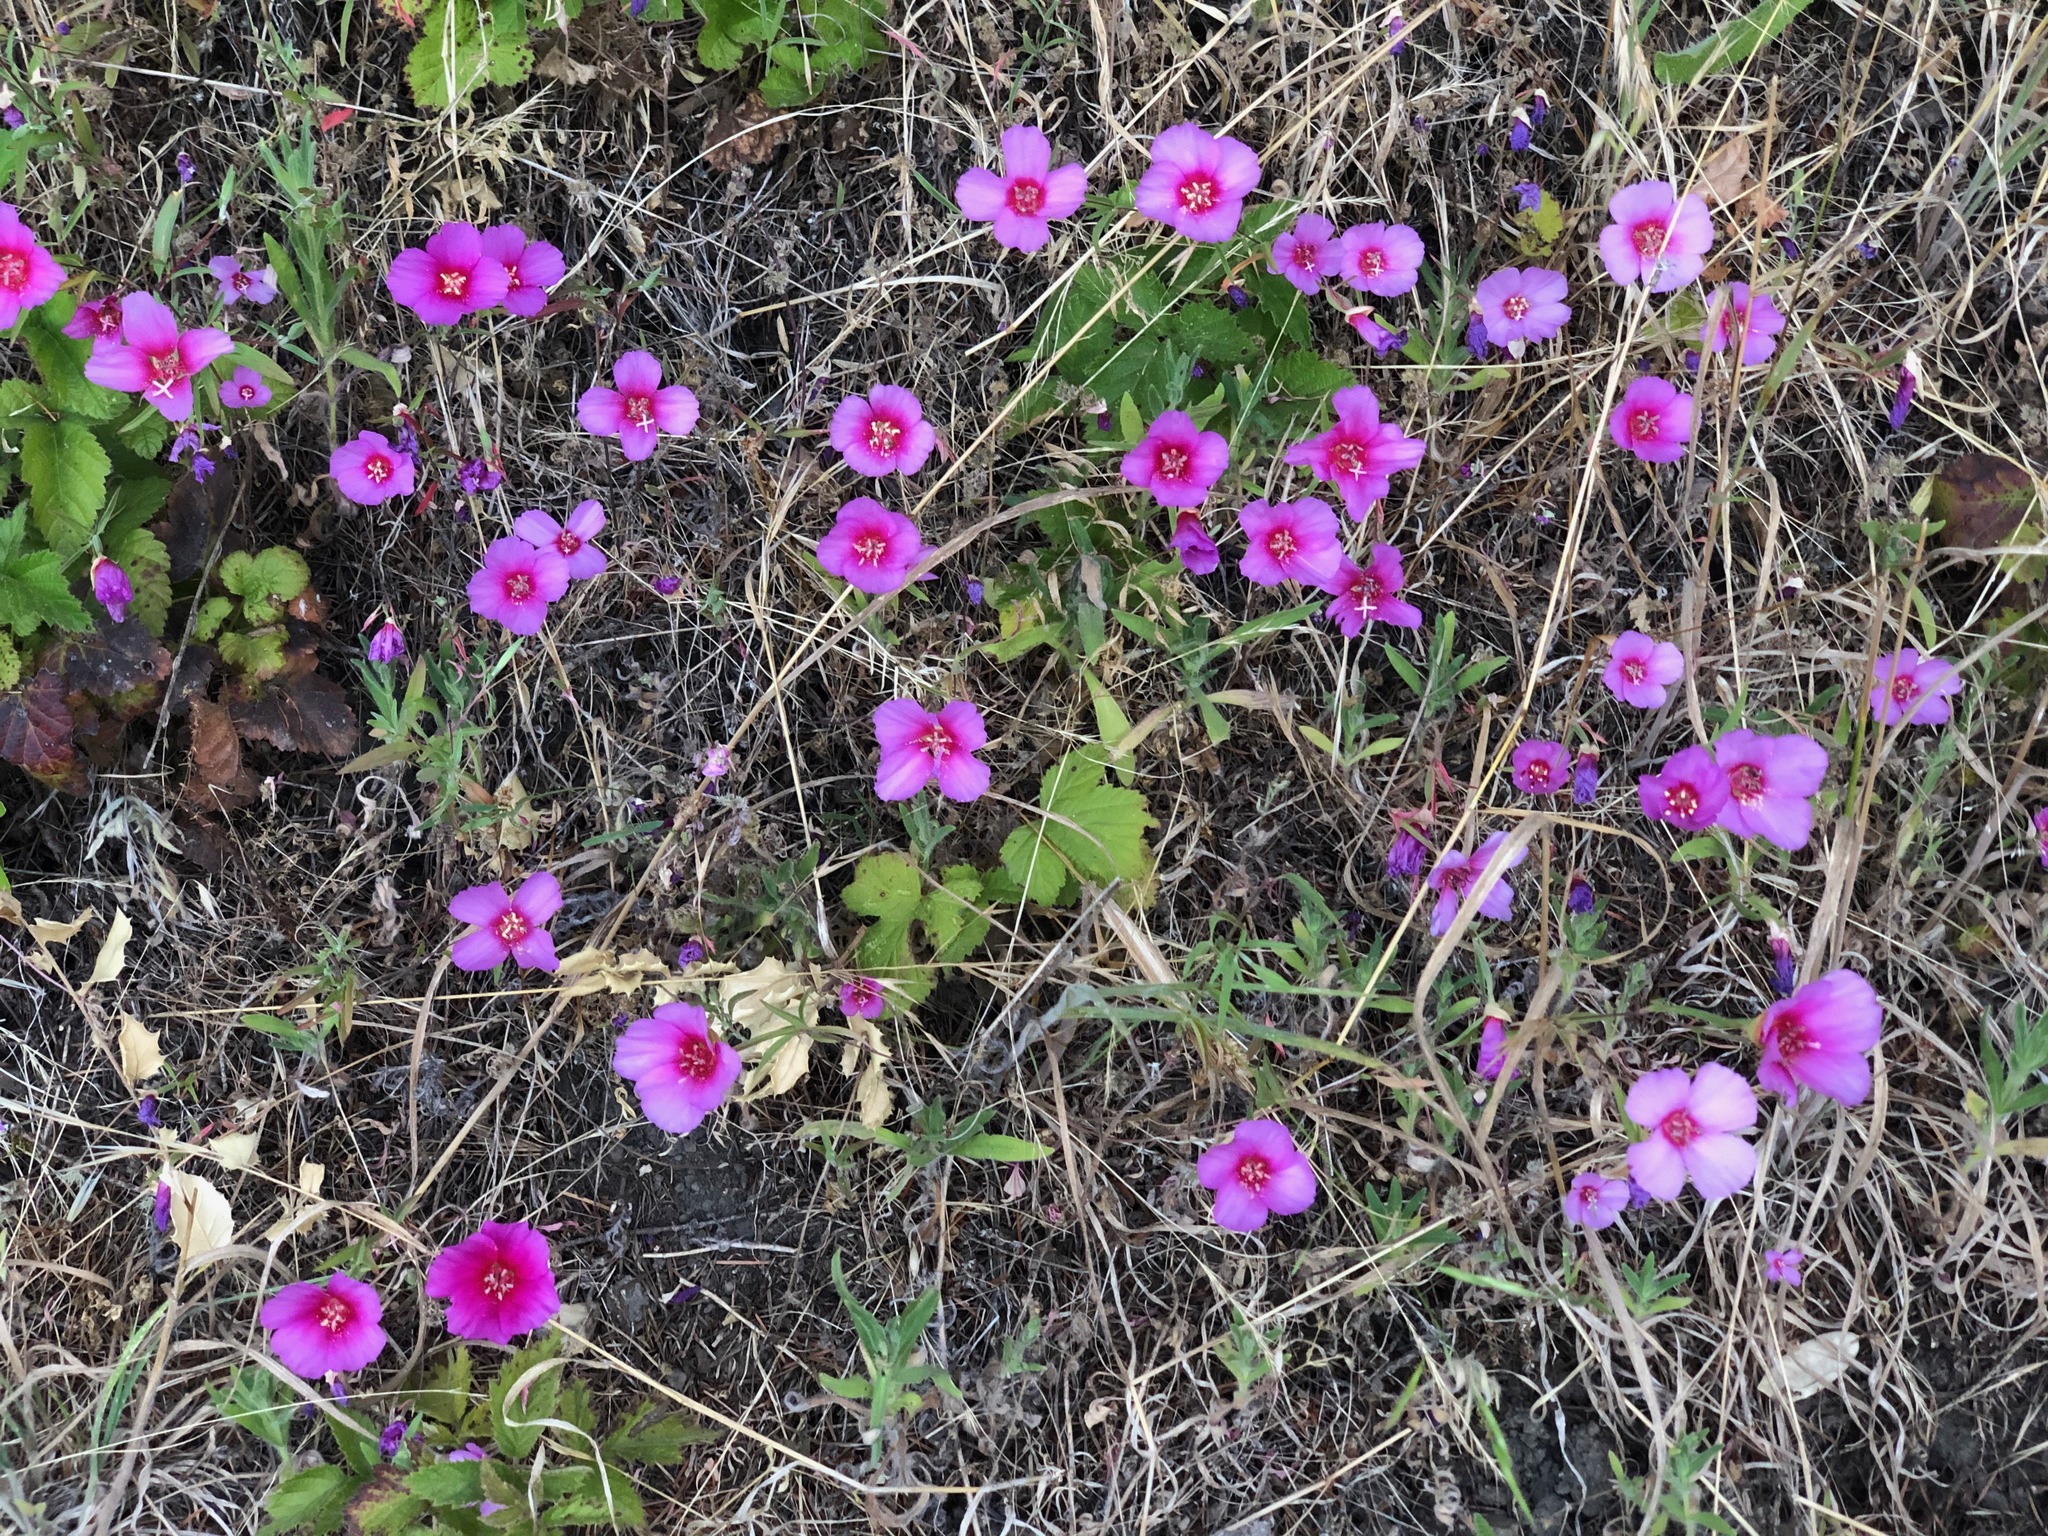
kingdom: Plantae
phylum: Tracheophyta
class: Magnoliopsida
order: Myrtales
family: Onagraceae
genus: Clarkia
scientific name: Clarkia rubicunda
